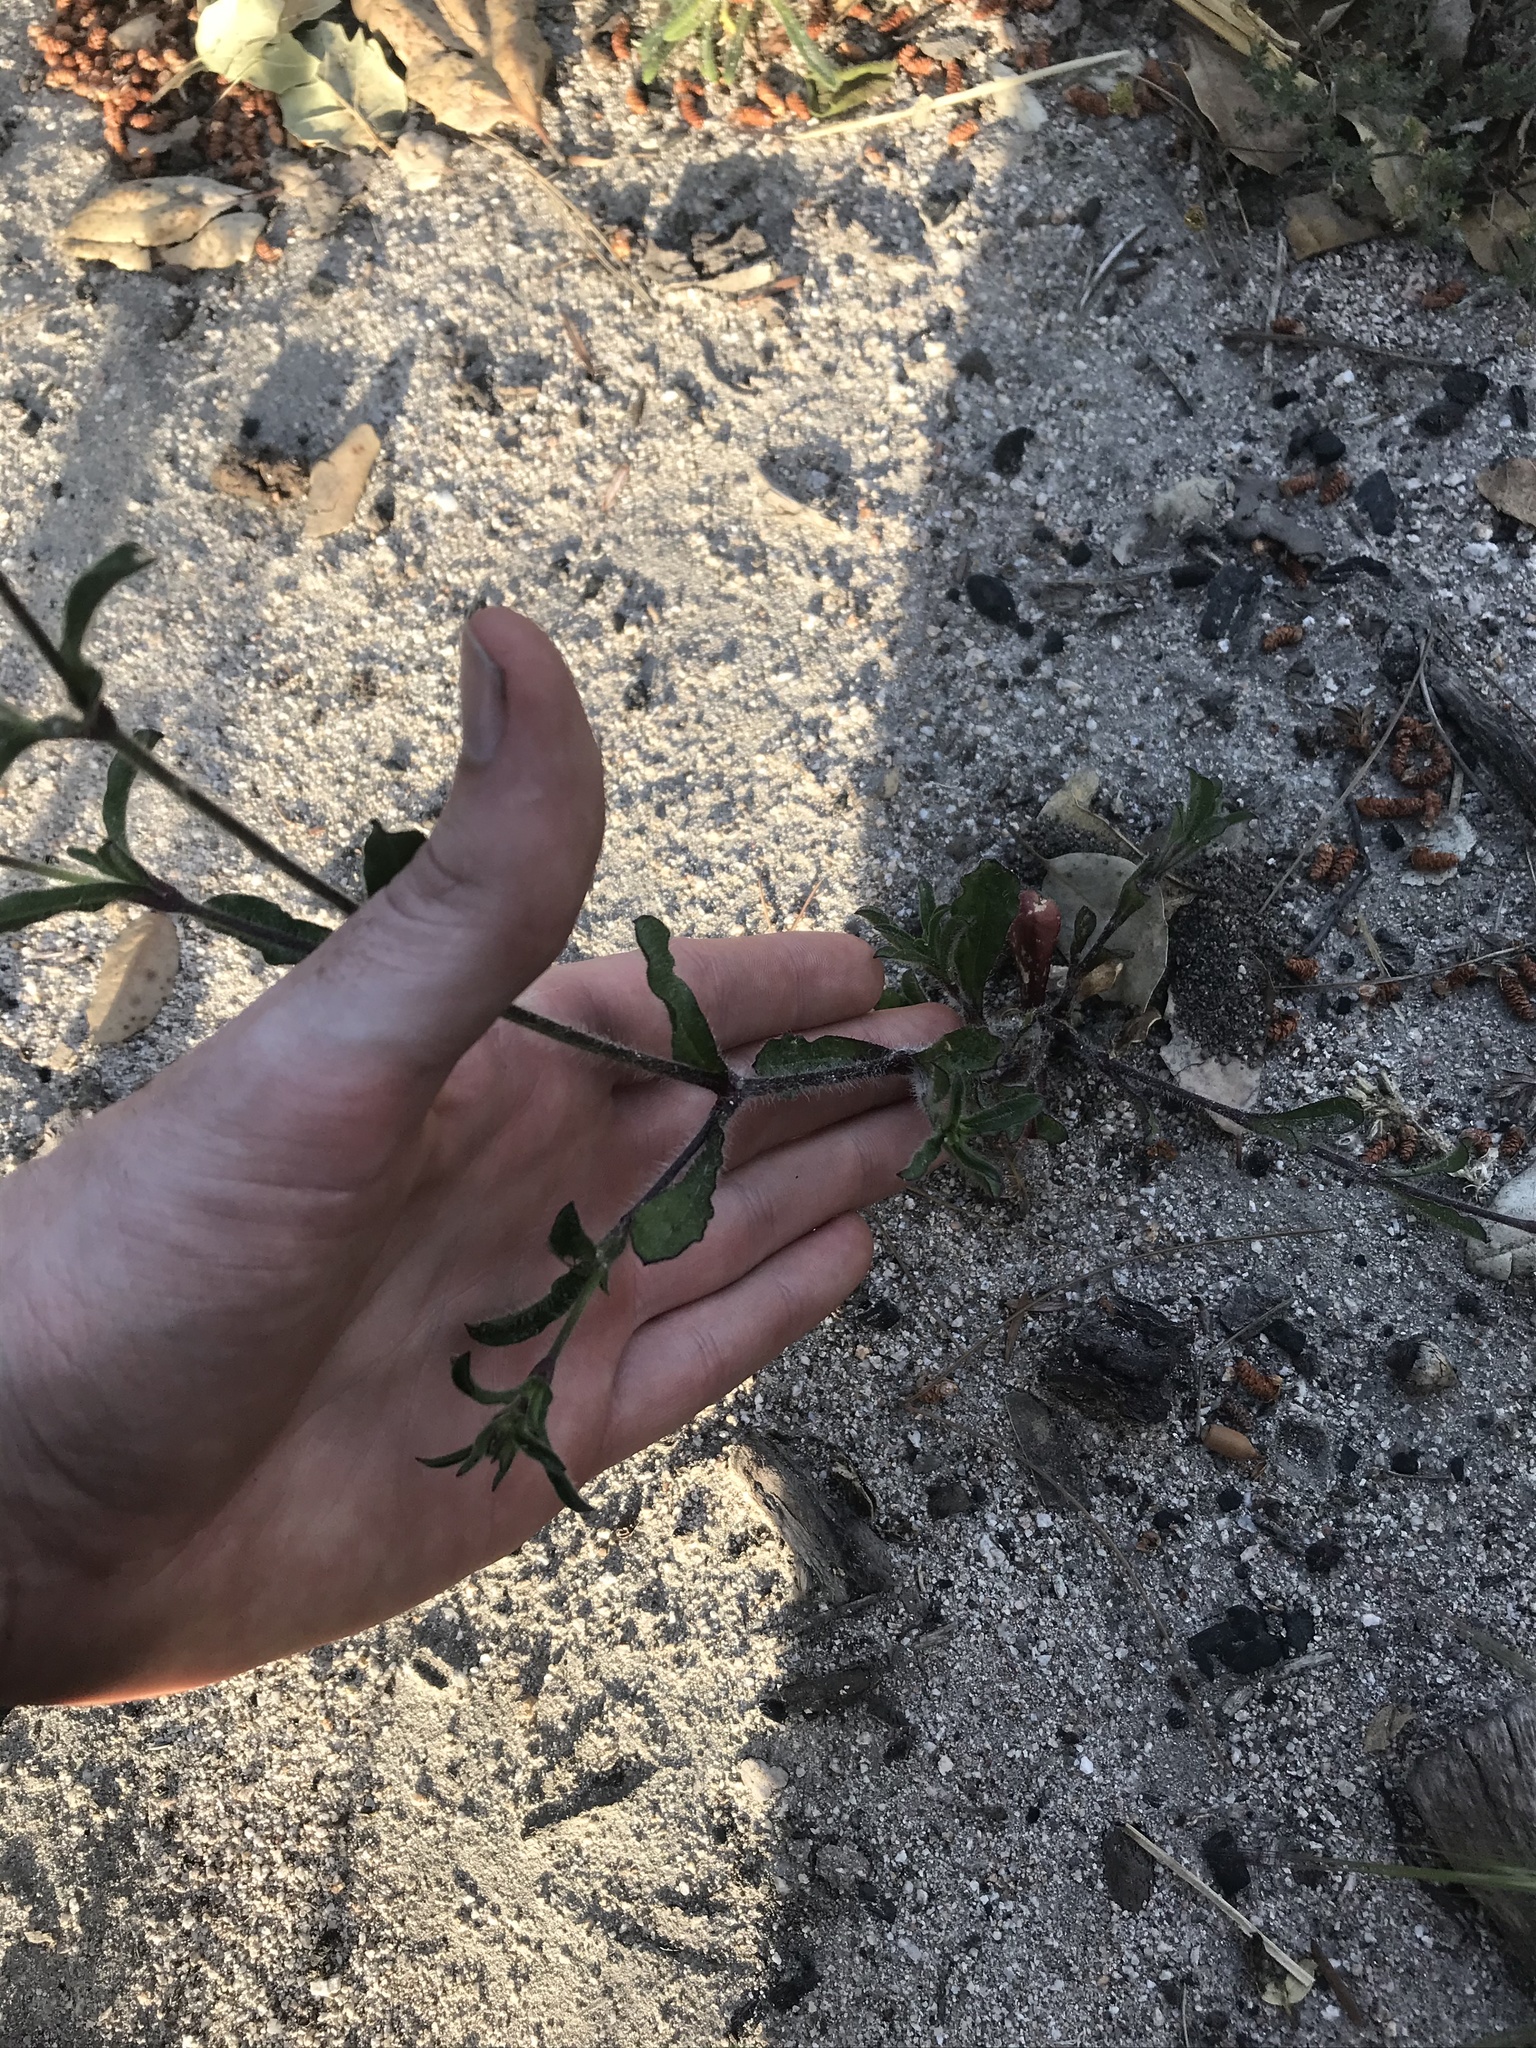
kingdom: Plantae
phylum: Tracheophyta
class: Magnoliopsida
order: Caryophyllales
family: Caryophyllaceae
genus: Silene
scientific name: Silene gallica
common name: Small-flowered catchfly
